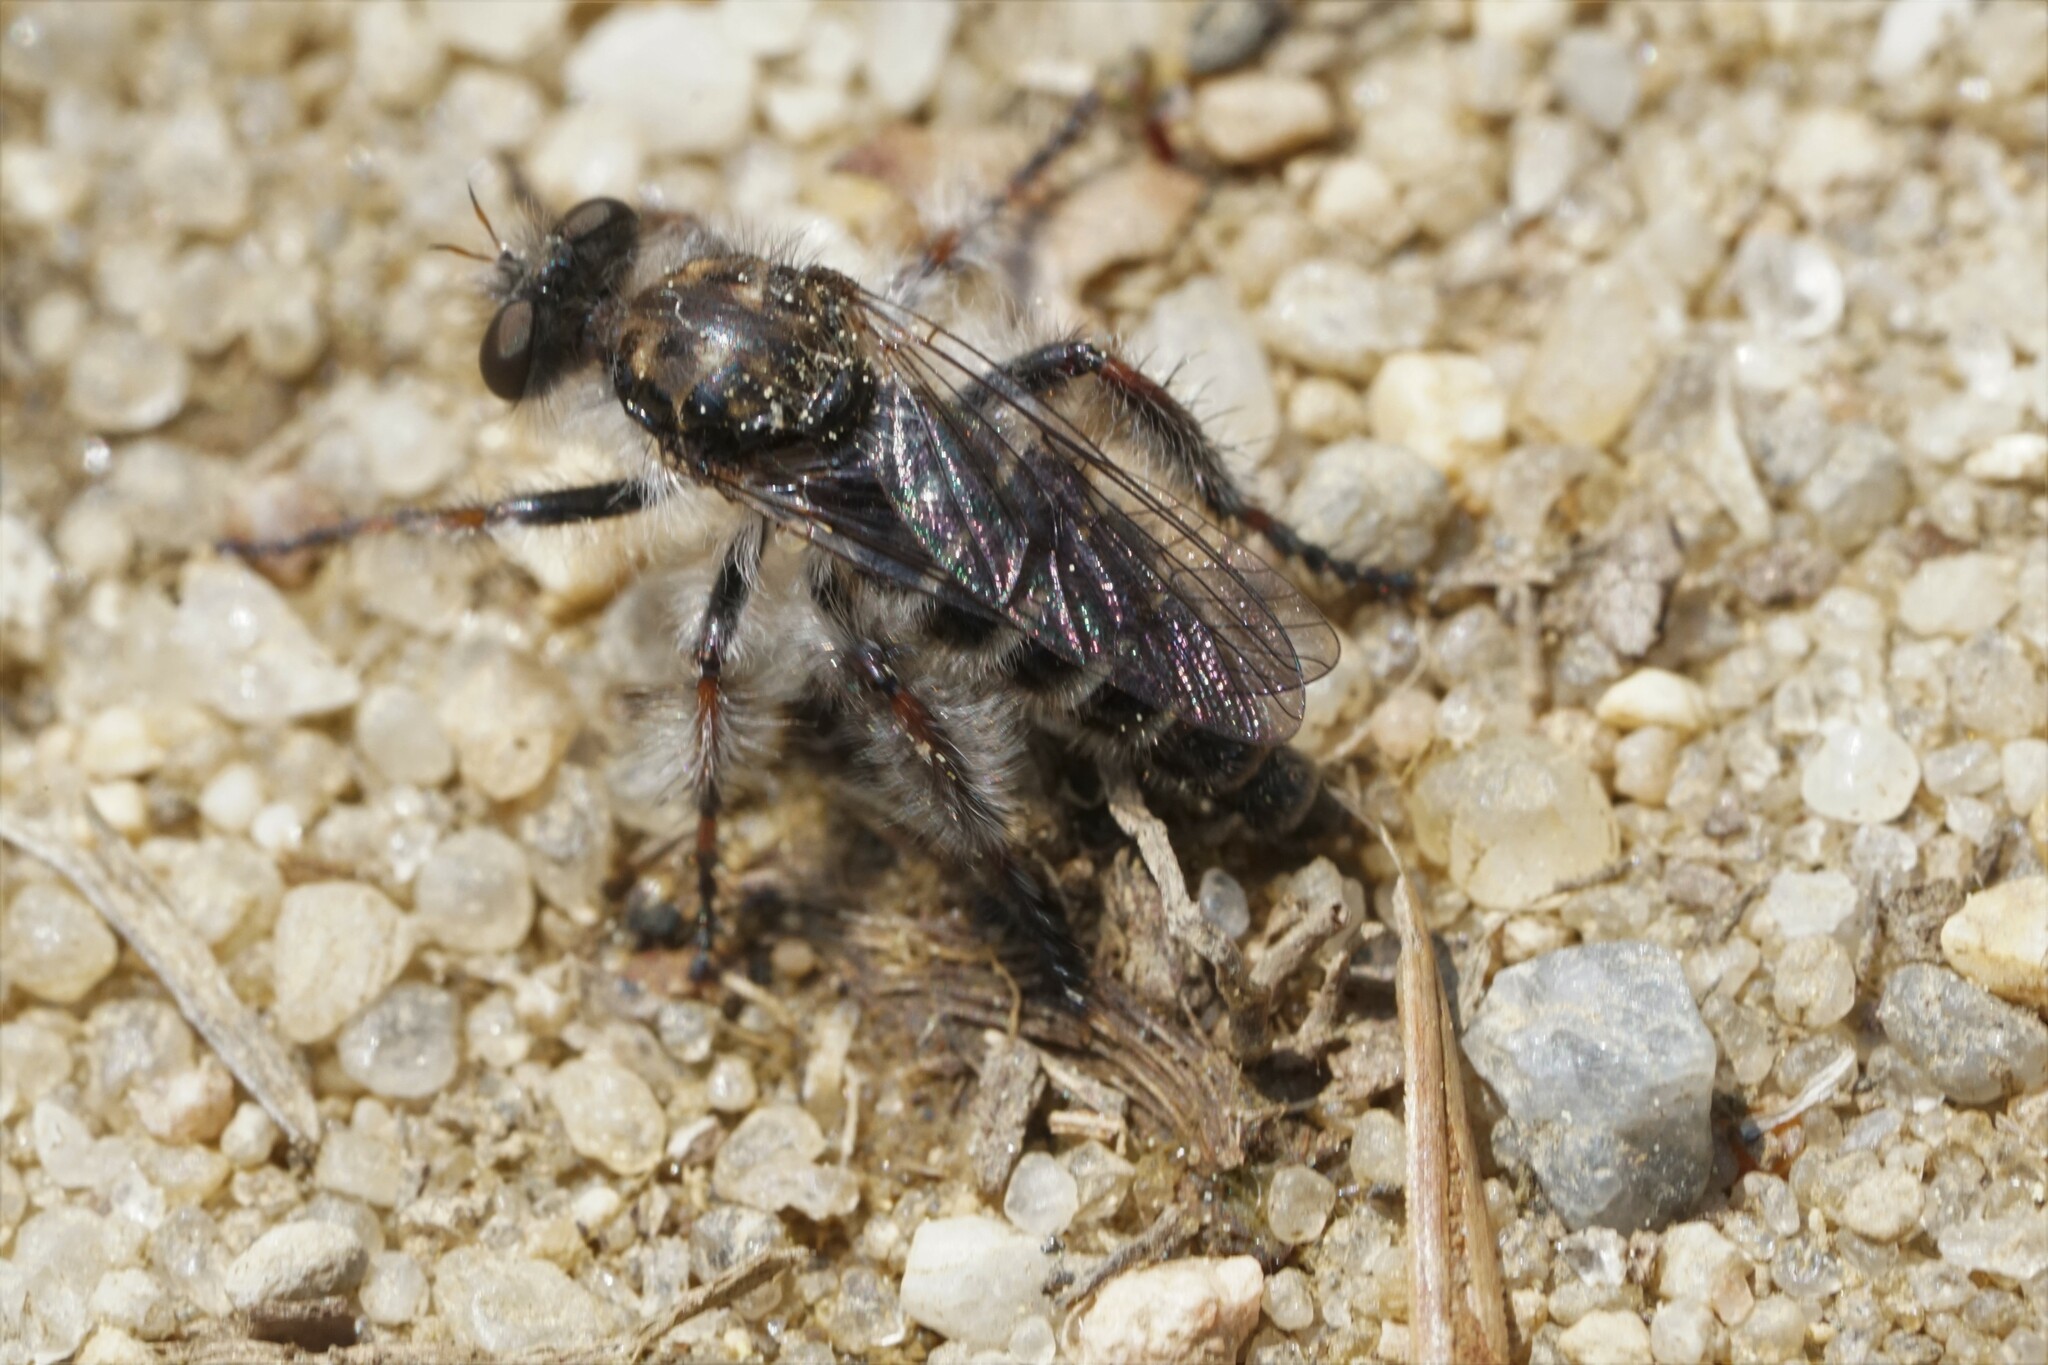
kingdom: Animalia
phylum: Arthropoda
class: Insecta
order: Diptera
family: Asilidae
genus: Cyrtopogon
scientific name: Cyrtopogon marginalis
